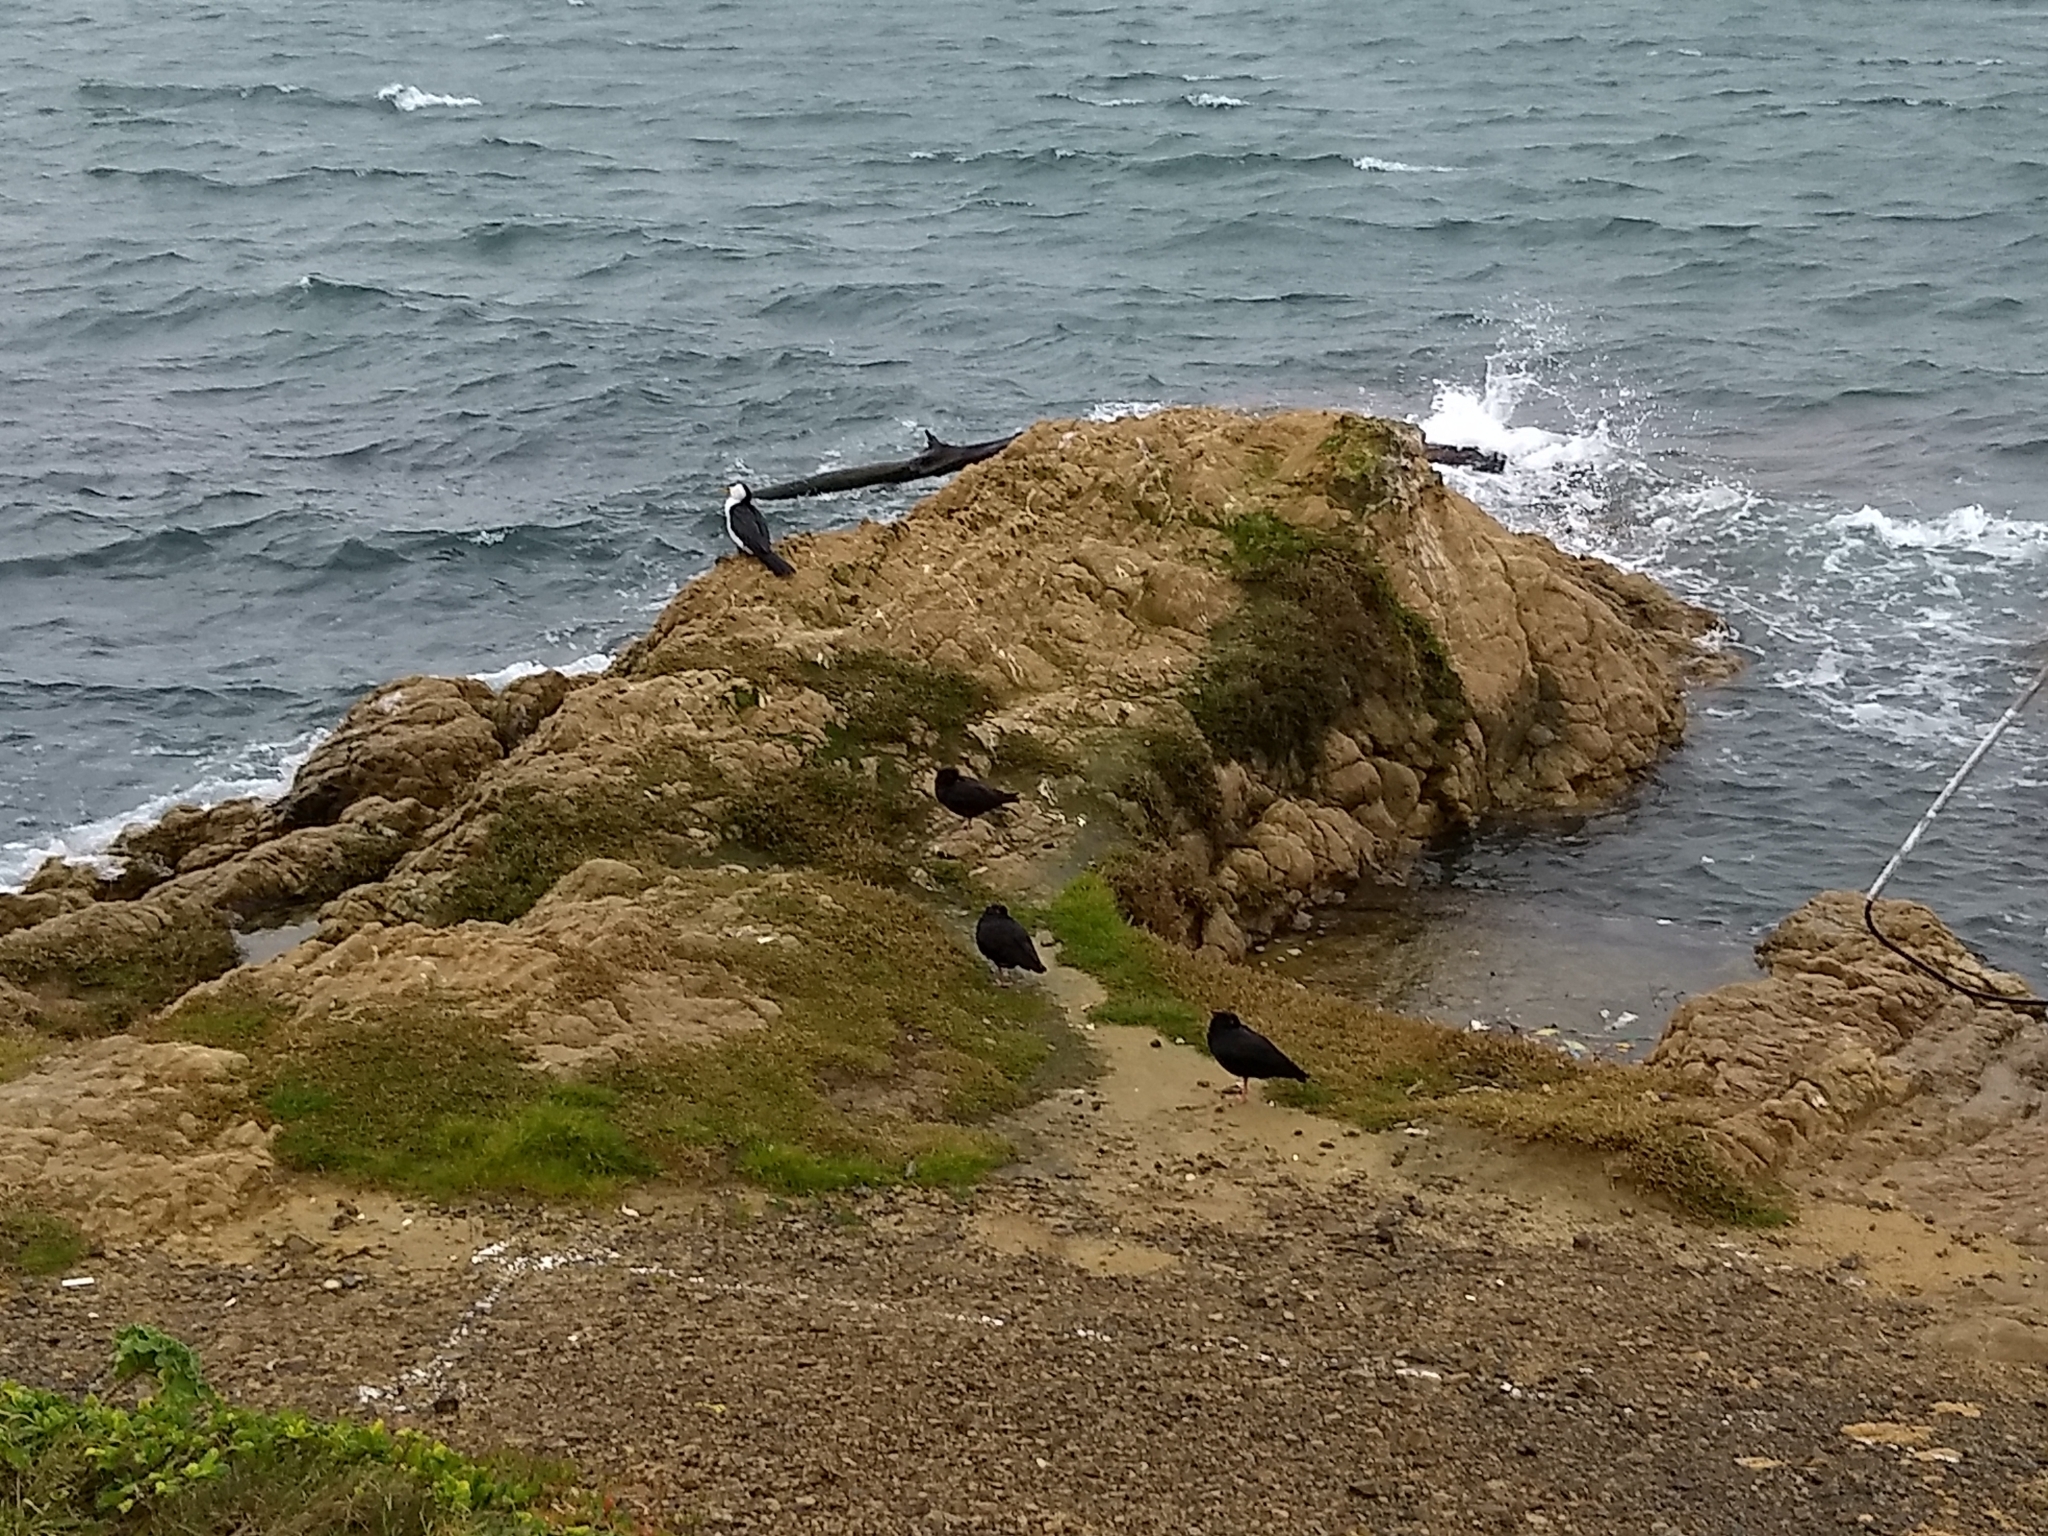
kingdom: Animalia
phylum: Chordata
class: Aves
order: Charadriiformes
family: Haematopodidae
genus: Haematopus
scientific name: Haematopus unicolor
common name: Variable oystercatcher
